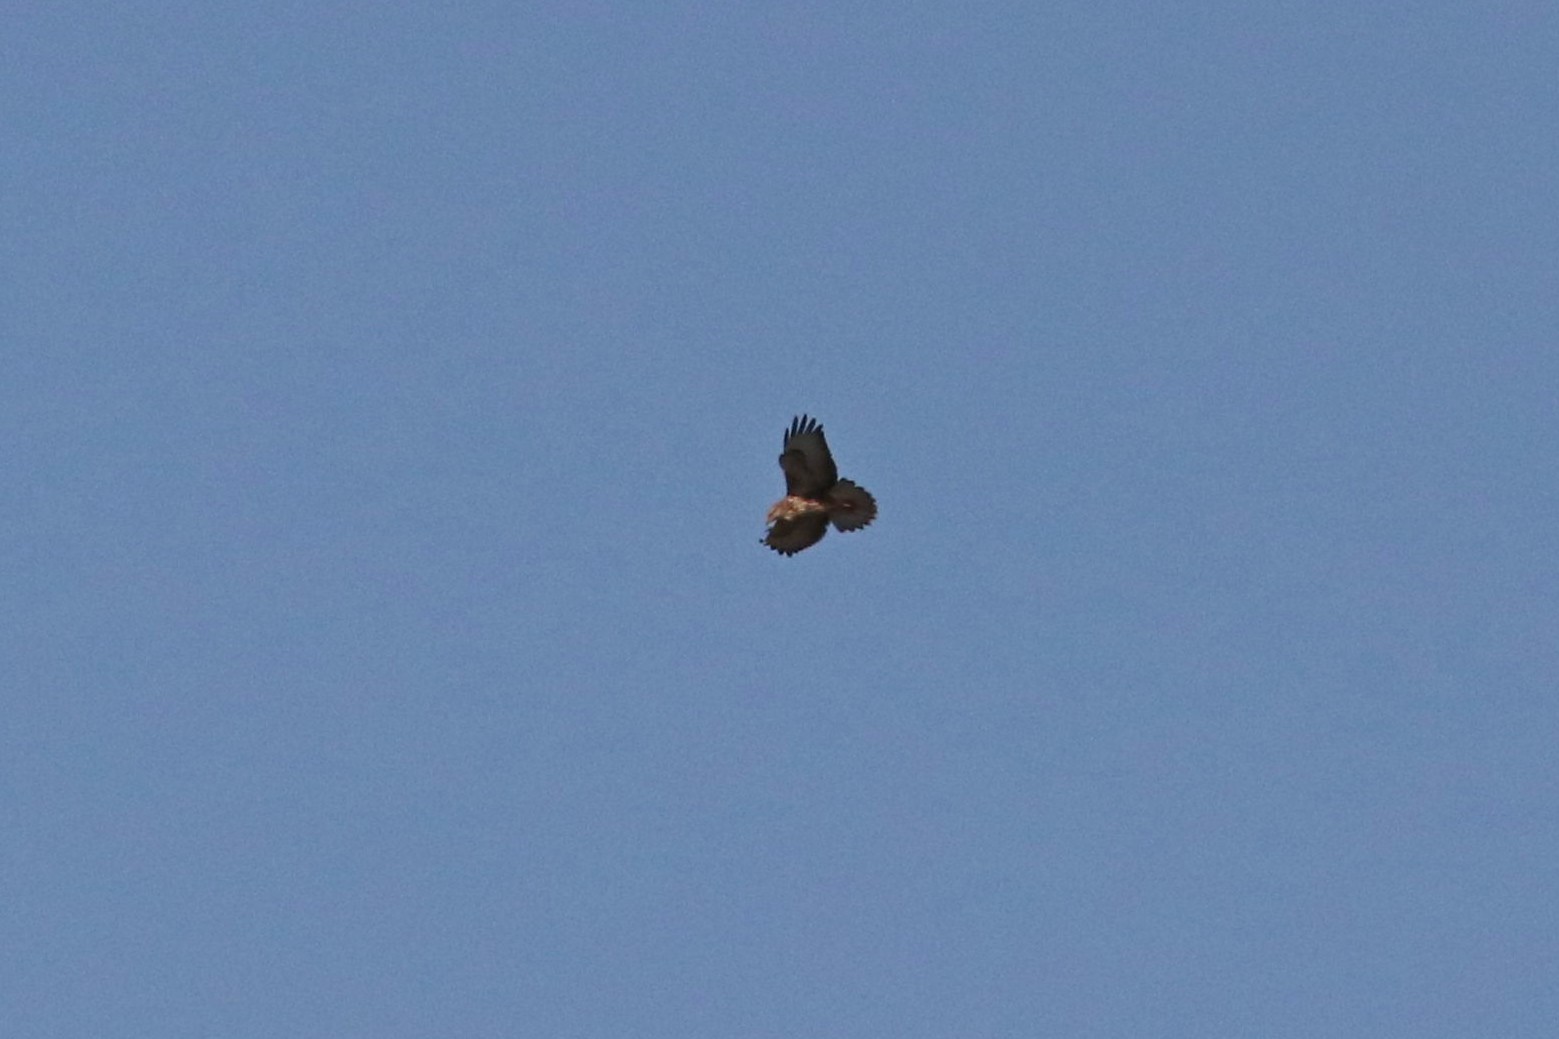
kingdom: Animalia
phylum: Chordata
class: Aves
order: Accipitriformes
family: Accipitridae
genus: Buteo
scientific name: Buteo buteo
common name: Common buzzard
